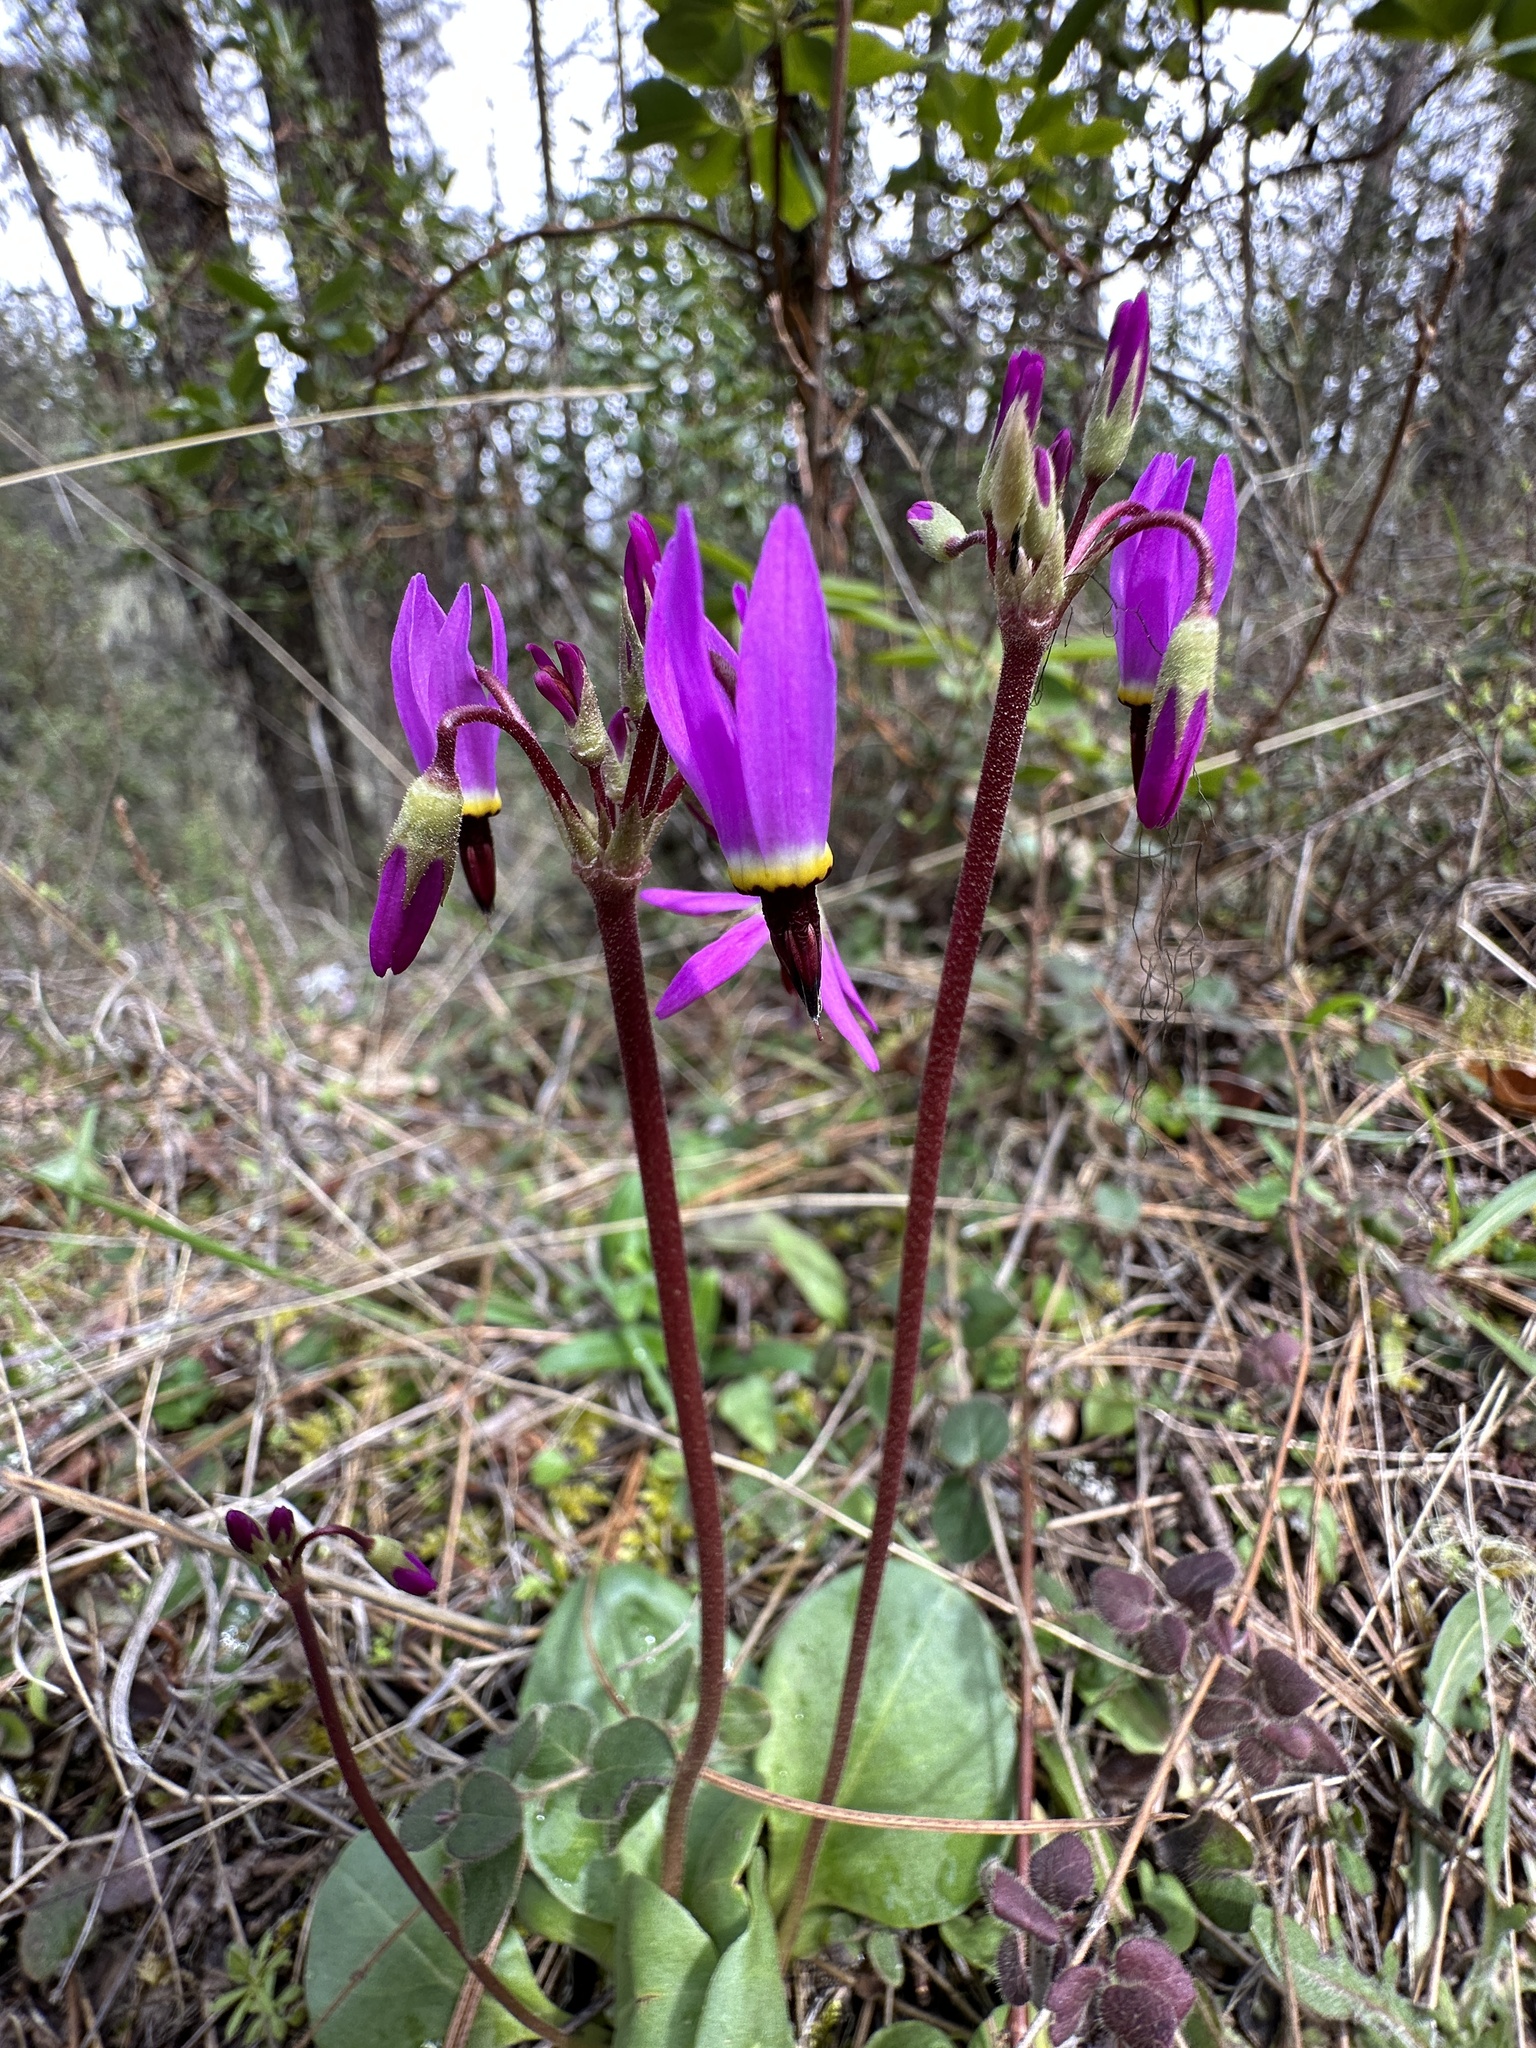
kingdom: Plantae
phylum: Tracheophyta
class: Magnoliopsida
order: Ericales
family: Primulaceae
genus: Dodecatheon
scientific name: Dodecatheon hendersonii
